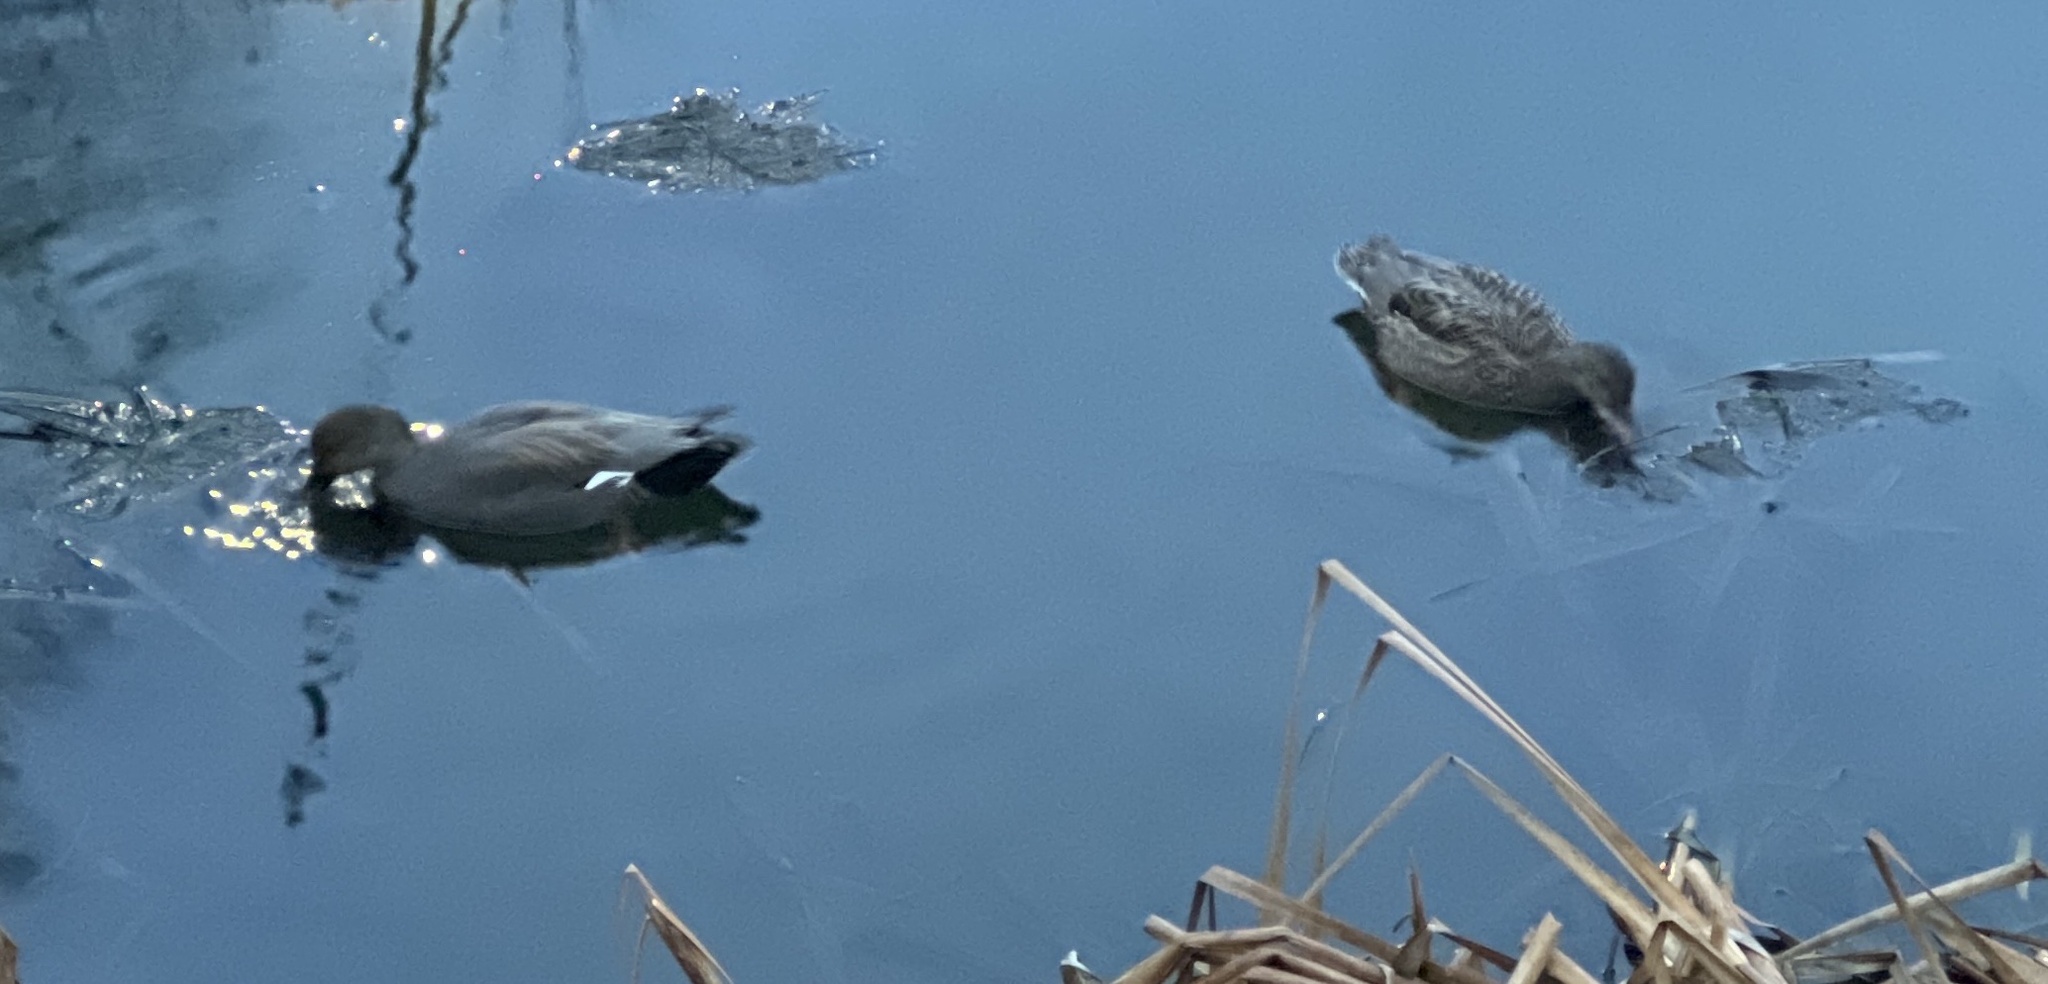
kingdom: Animalia
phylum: Chordata
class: Aves
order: Anseriformes
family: Anatidae
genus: Mareca
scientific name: Mareca strepera
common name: Gadwall
